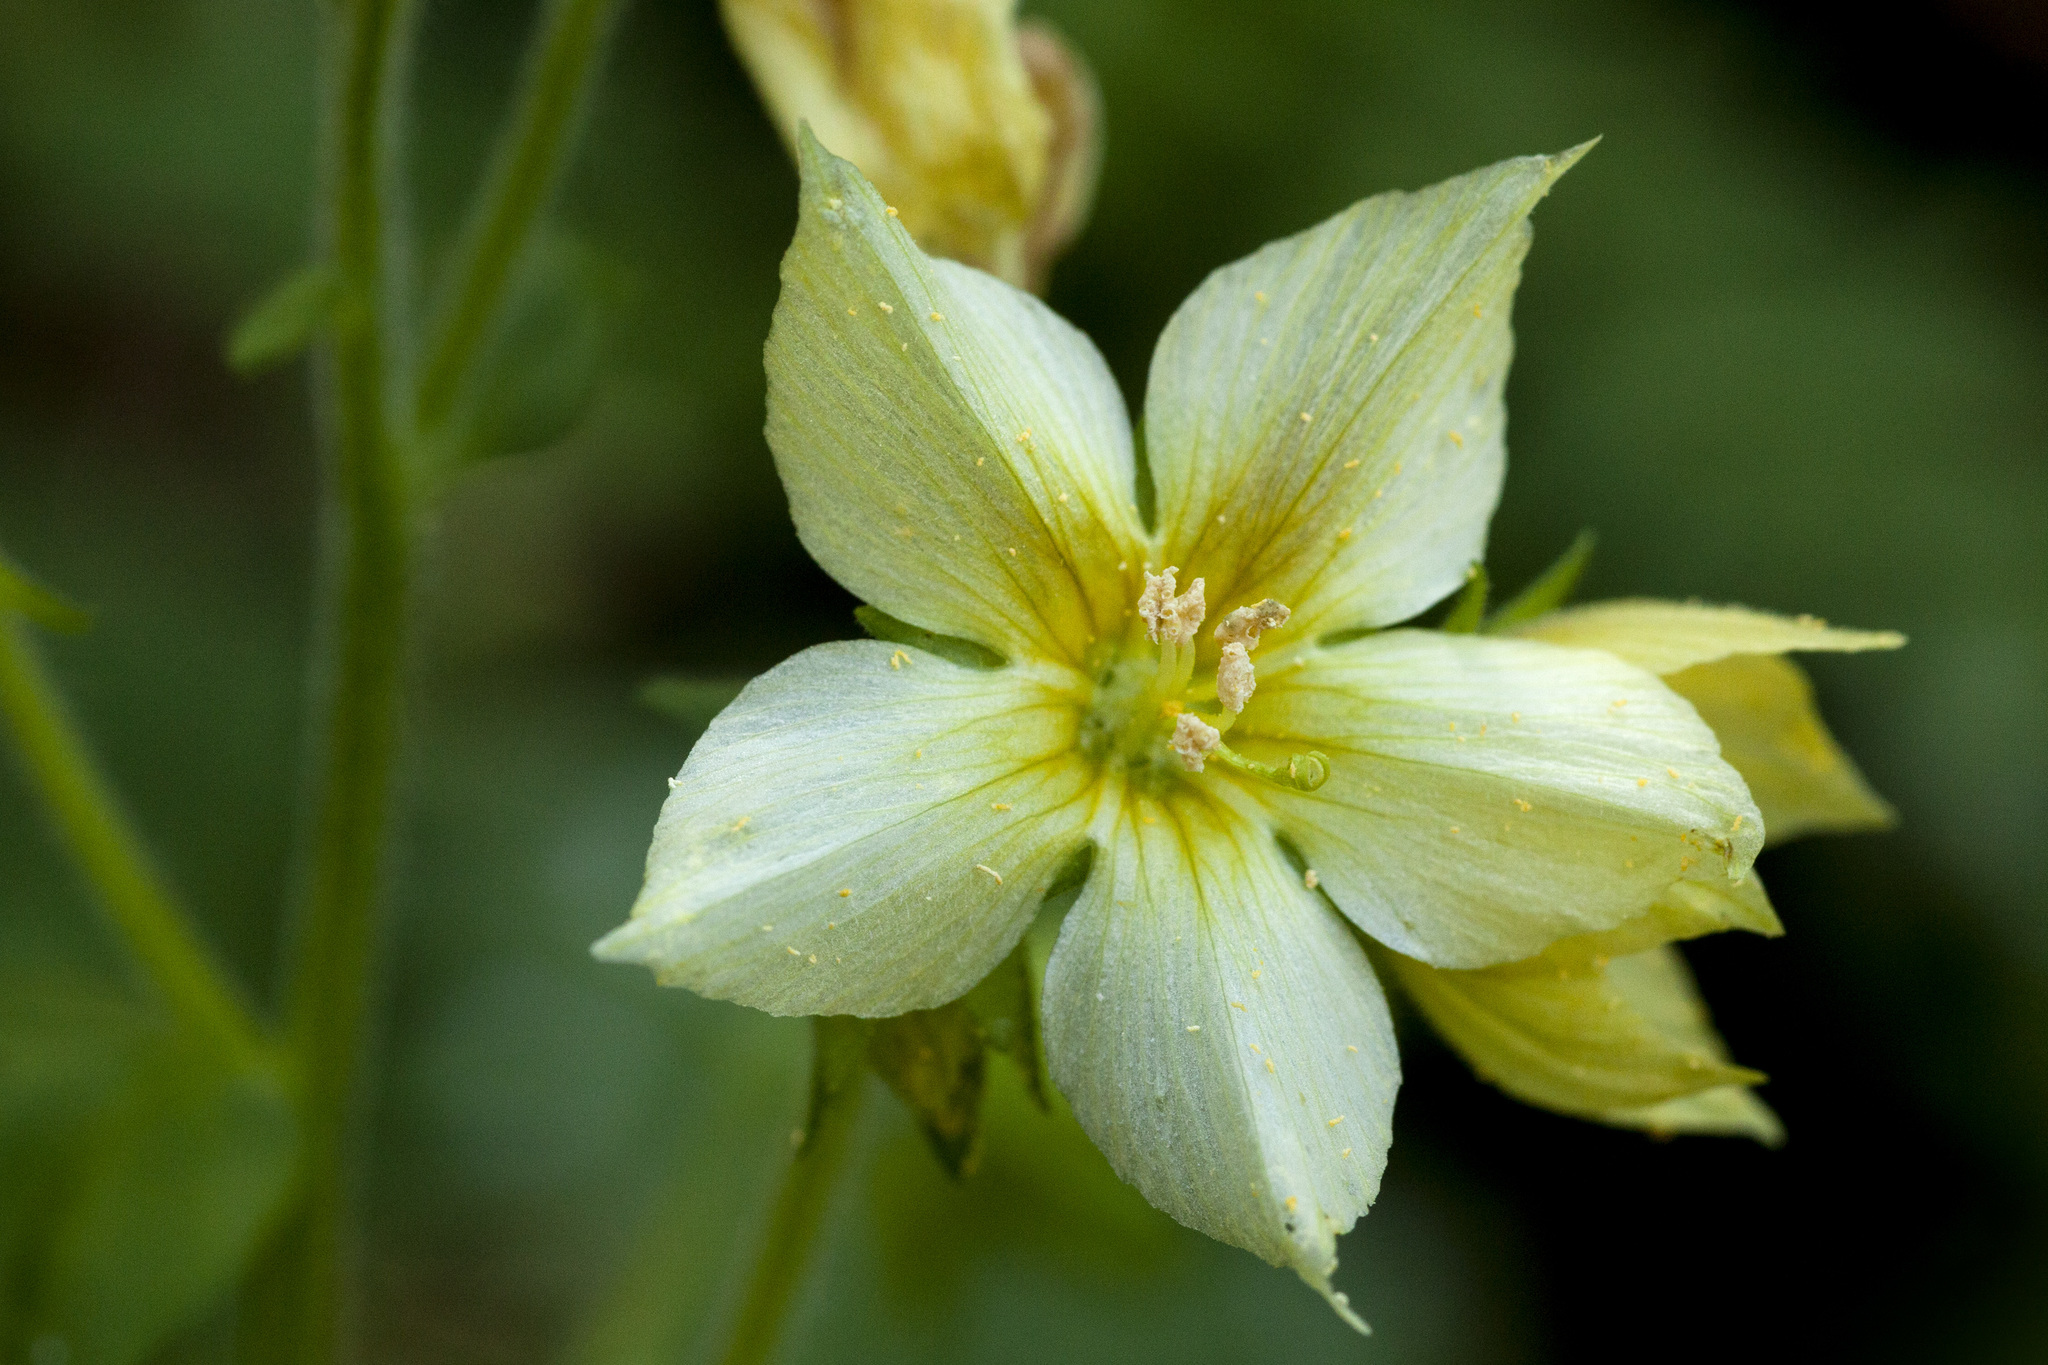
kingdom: Plantae
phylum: Tracheophyta
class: Magnoliopsida
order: Ericales
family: Polemoniaceae
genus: Polemonium
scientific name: Polemonium foliosissimum
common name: Leafy jacob's-ladder
